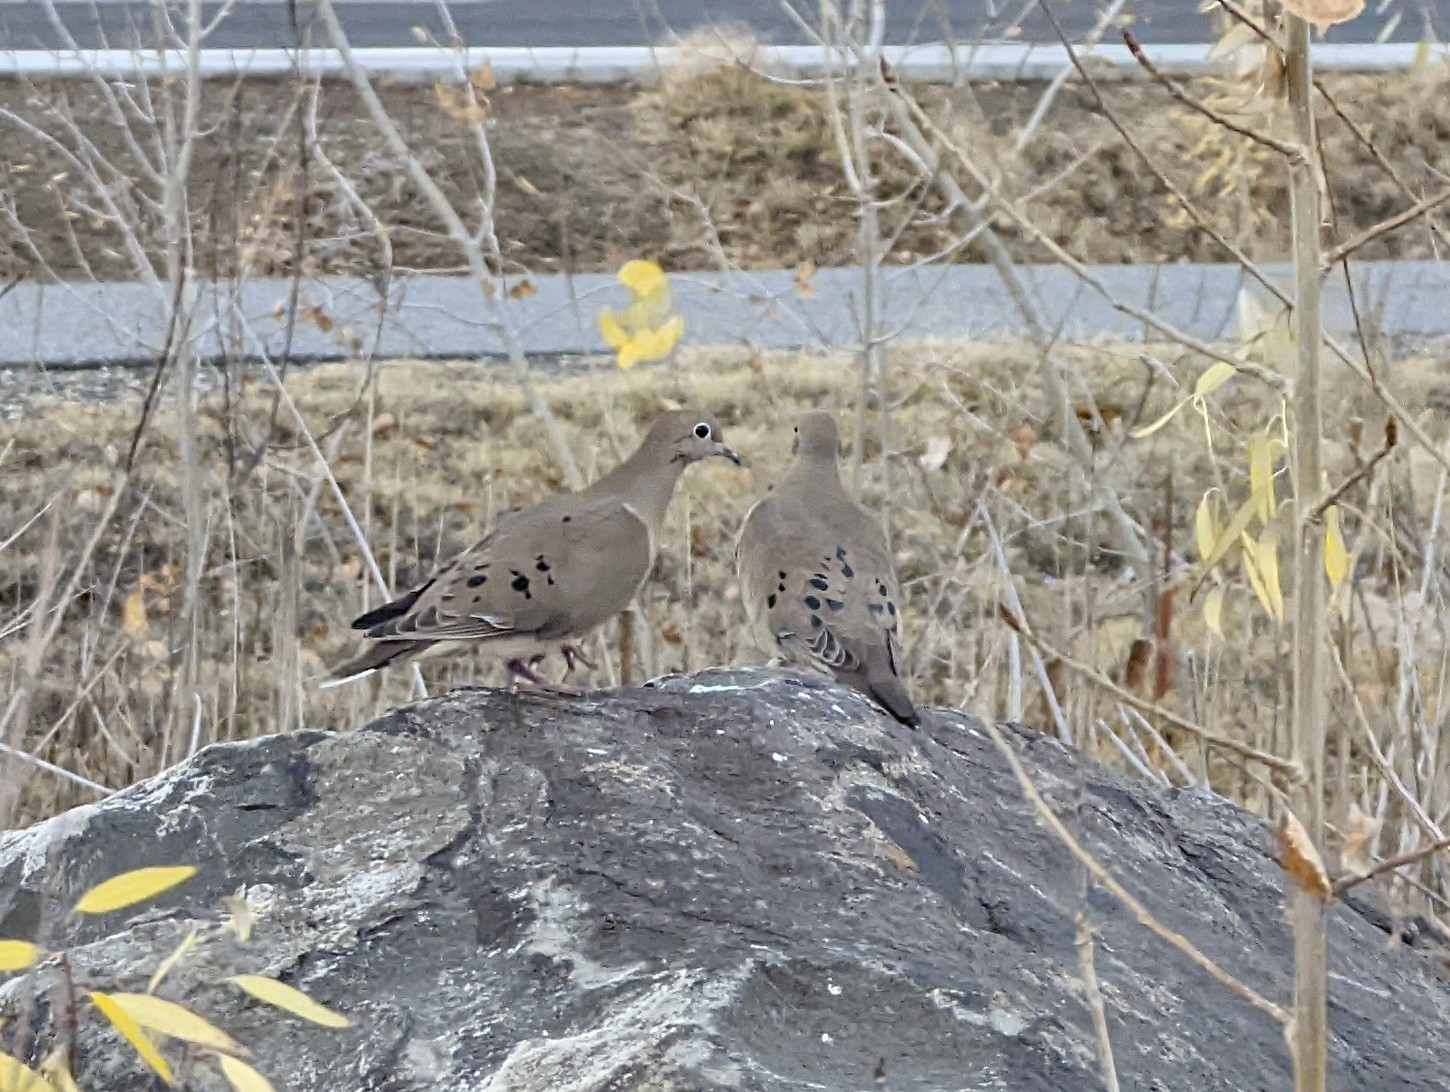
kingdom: Animalia
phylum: Chordata
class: Aves
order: Columbiformes
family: Columbidae
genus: Zenaida
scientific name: Zenaida macroura
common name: Mourning dove
